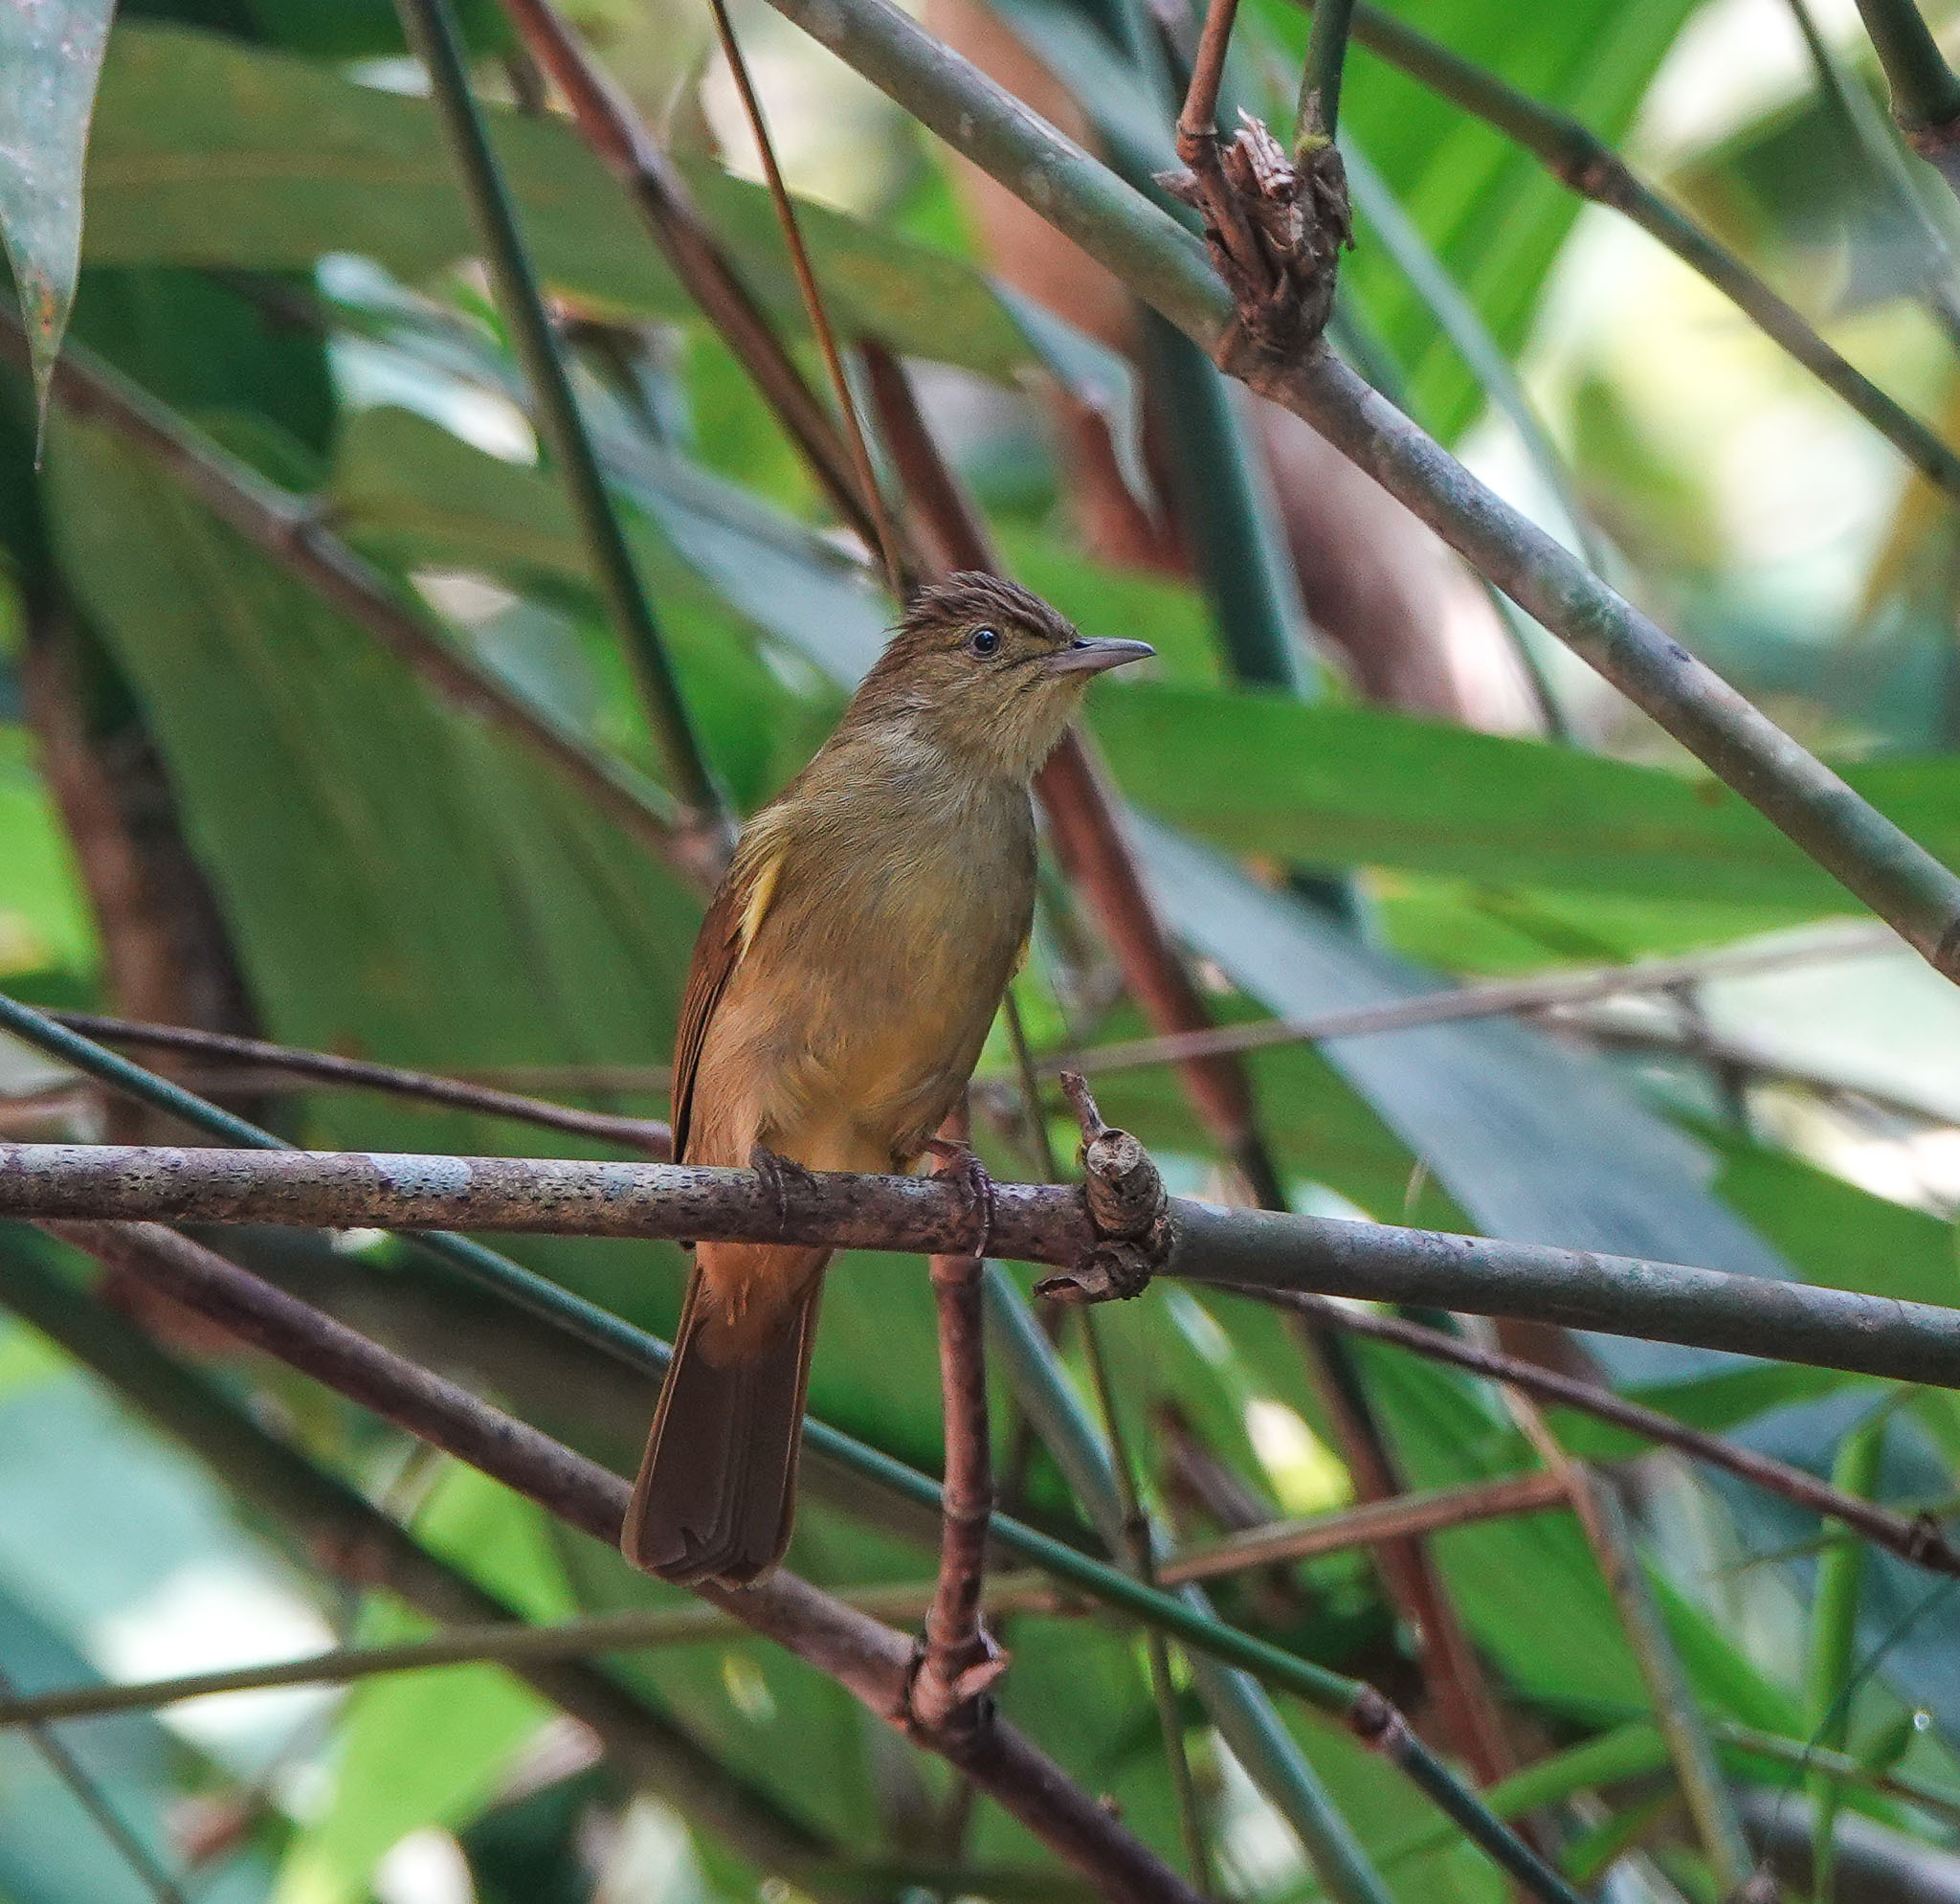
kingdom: Animalia
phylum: Chordata
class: Aves
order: Passeriformes
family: Pycnonotidae
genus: Iole
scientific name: Iole virescens
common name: Olive bulbul
